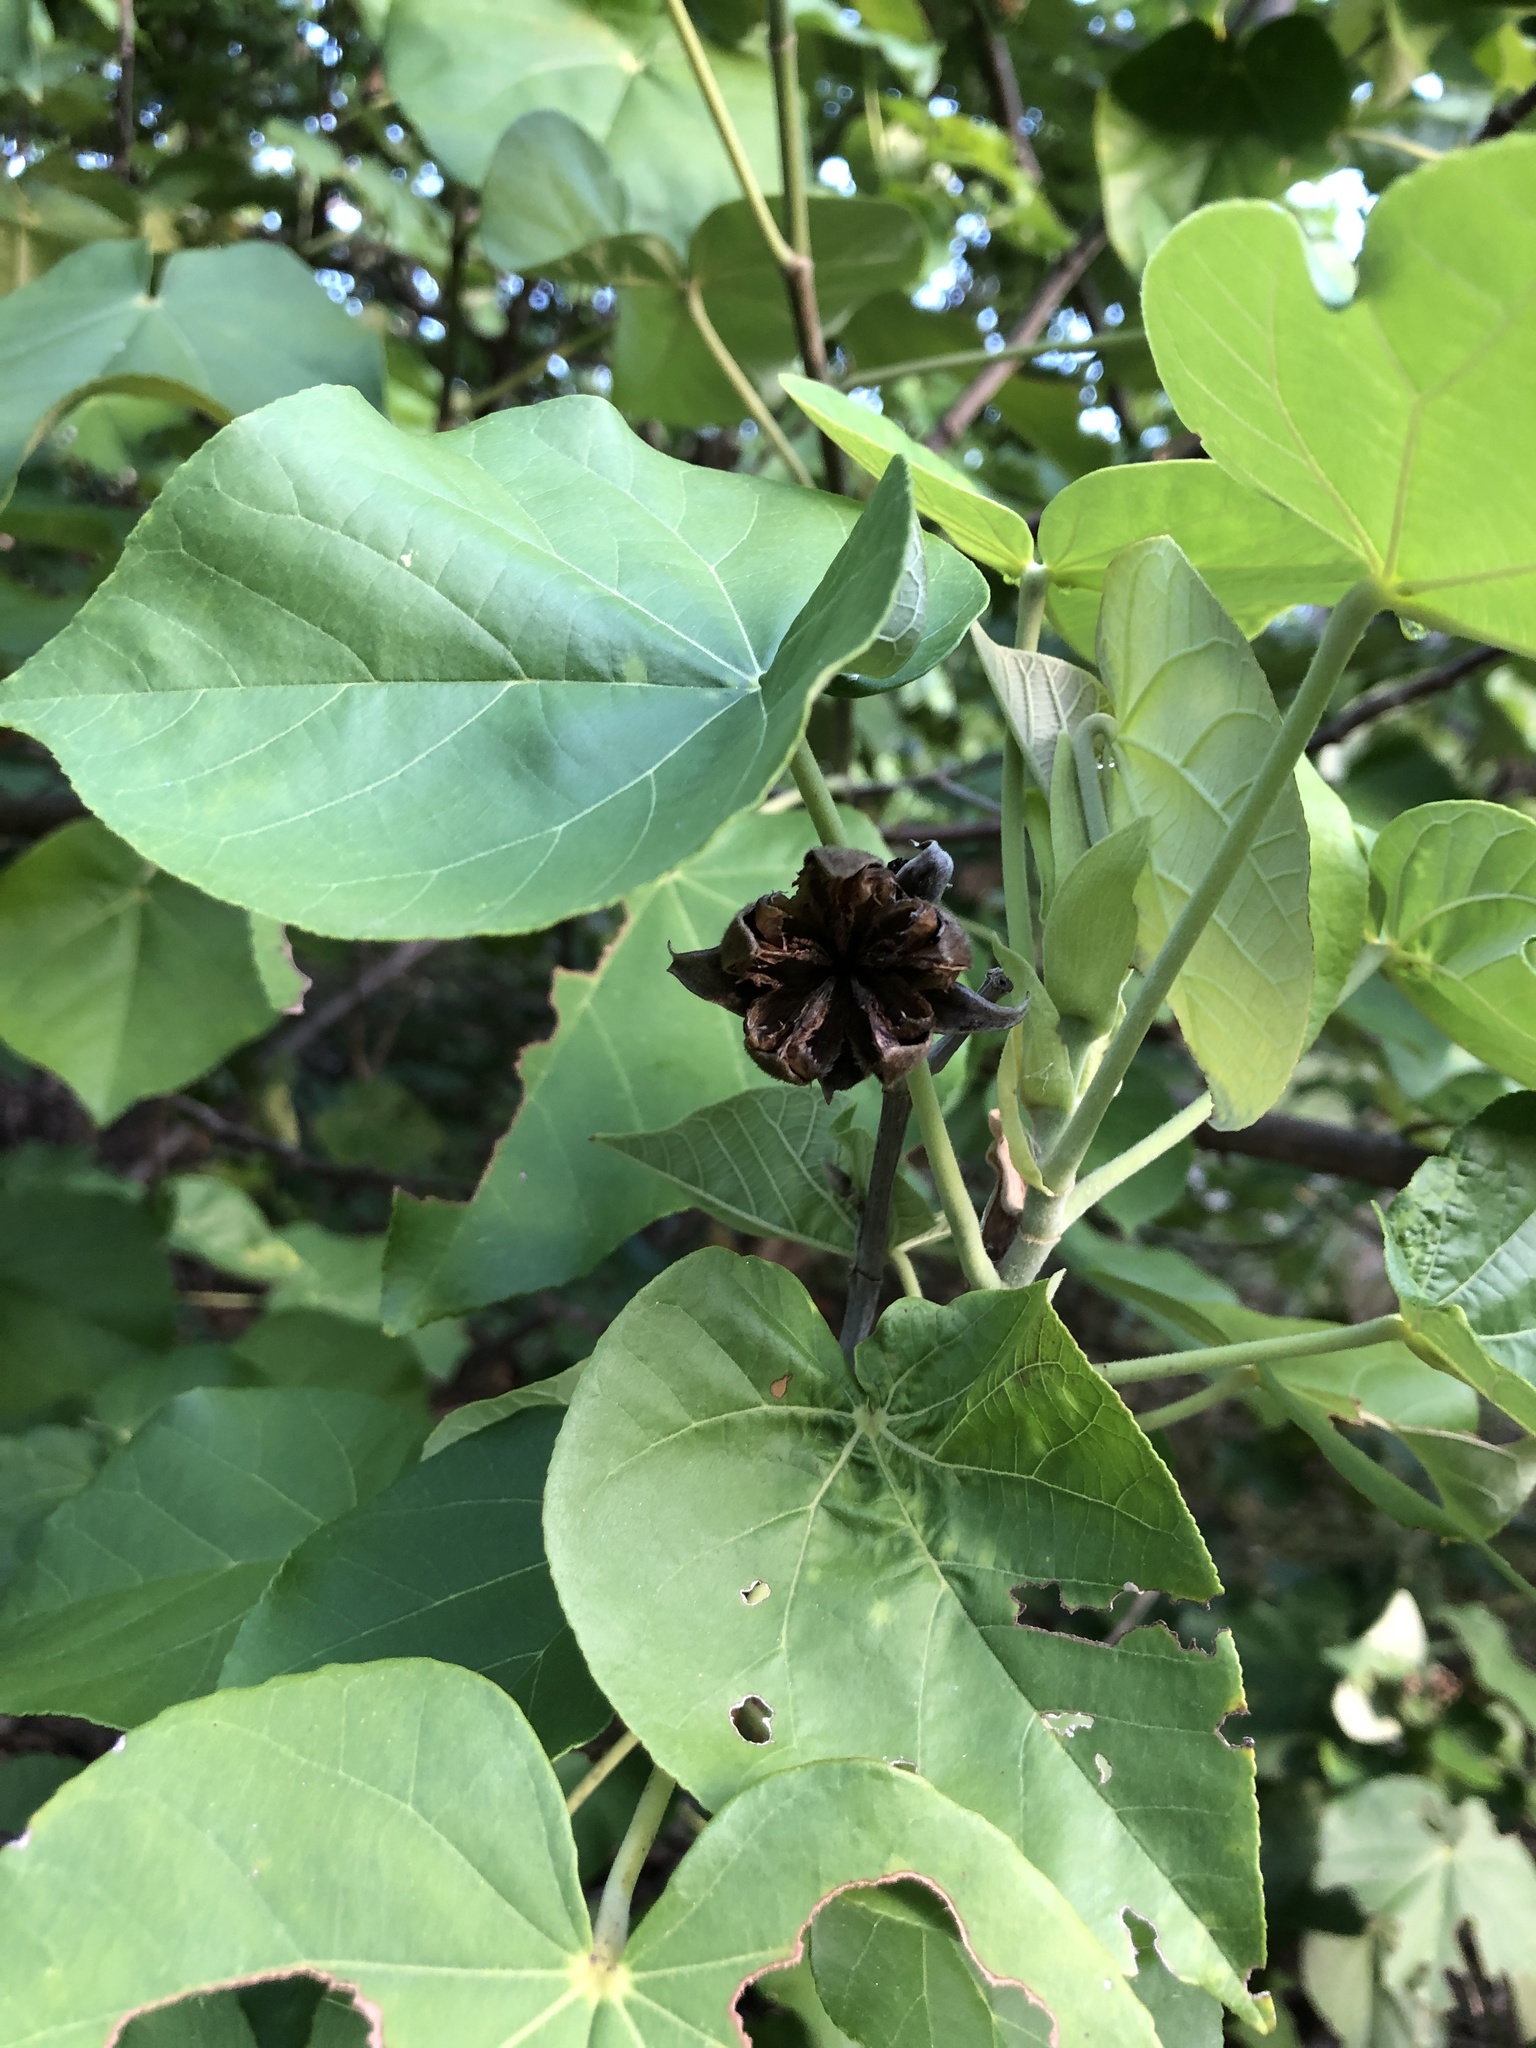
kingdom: Plantae
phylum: Tracheophyta
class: Magnoliopsida
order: Malvales
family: Malvaceae
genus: Talipariti
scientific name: Talipariti tiliaceum
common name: Sea hibiscus
